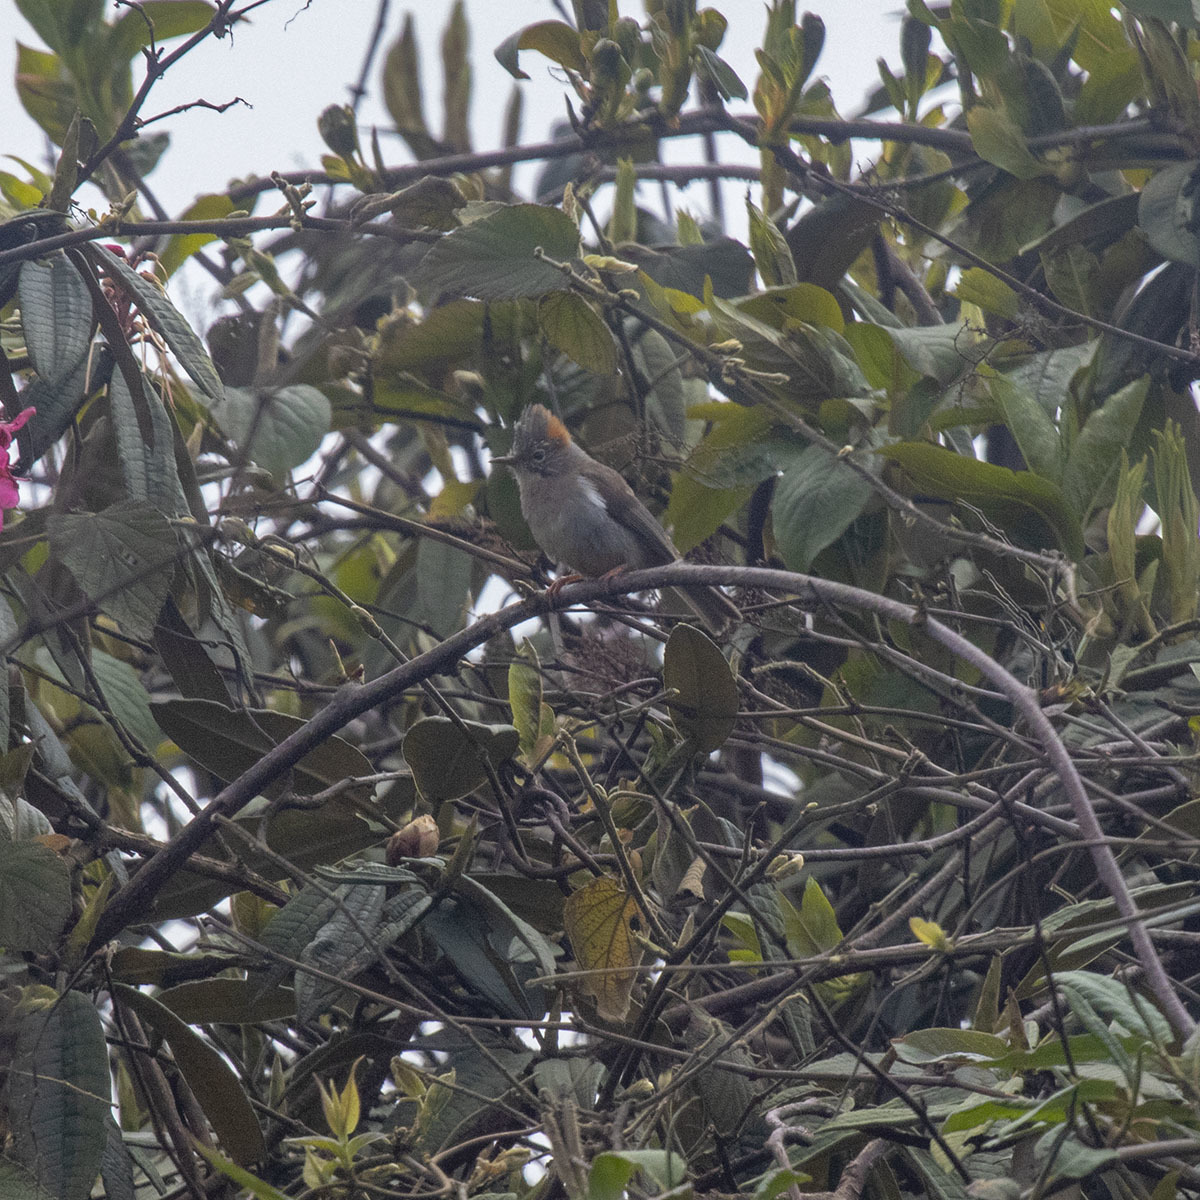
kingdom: Animalia
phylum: Chordata
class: Aves
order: Passeriformes
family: Zosteropidae
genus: Yuhina
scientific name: Yuhina occipitalis
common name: Rufous-vented yuhina
